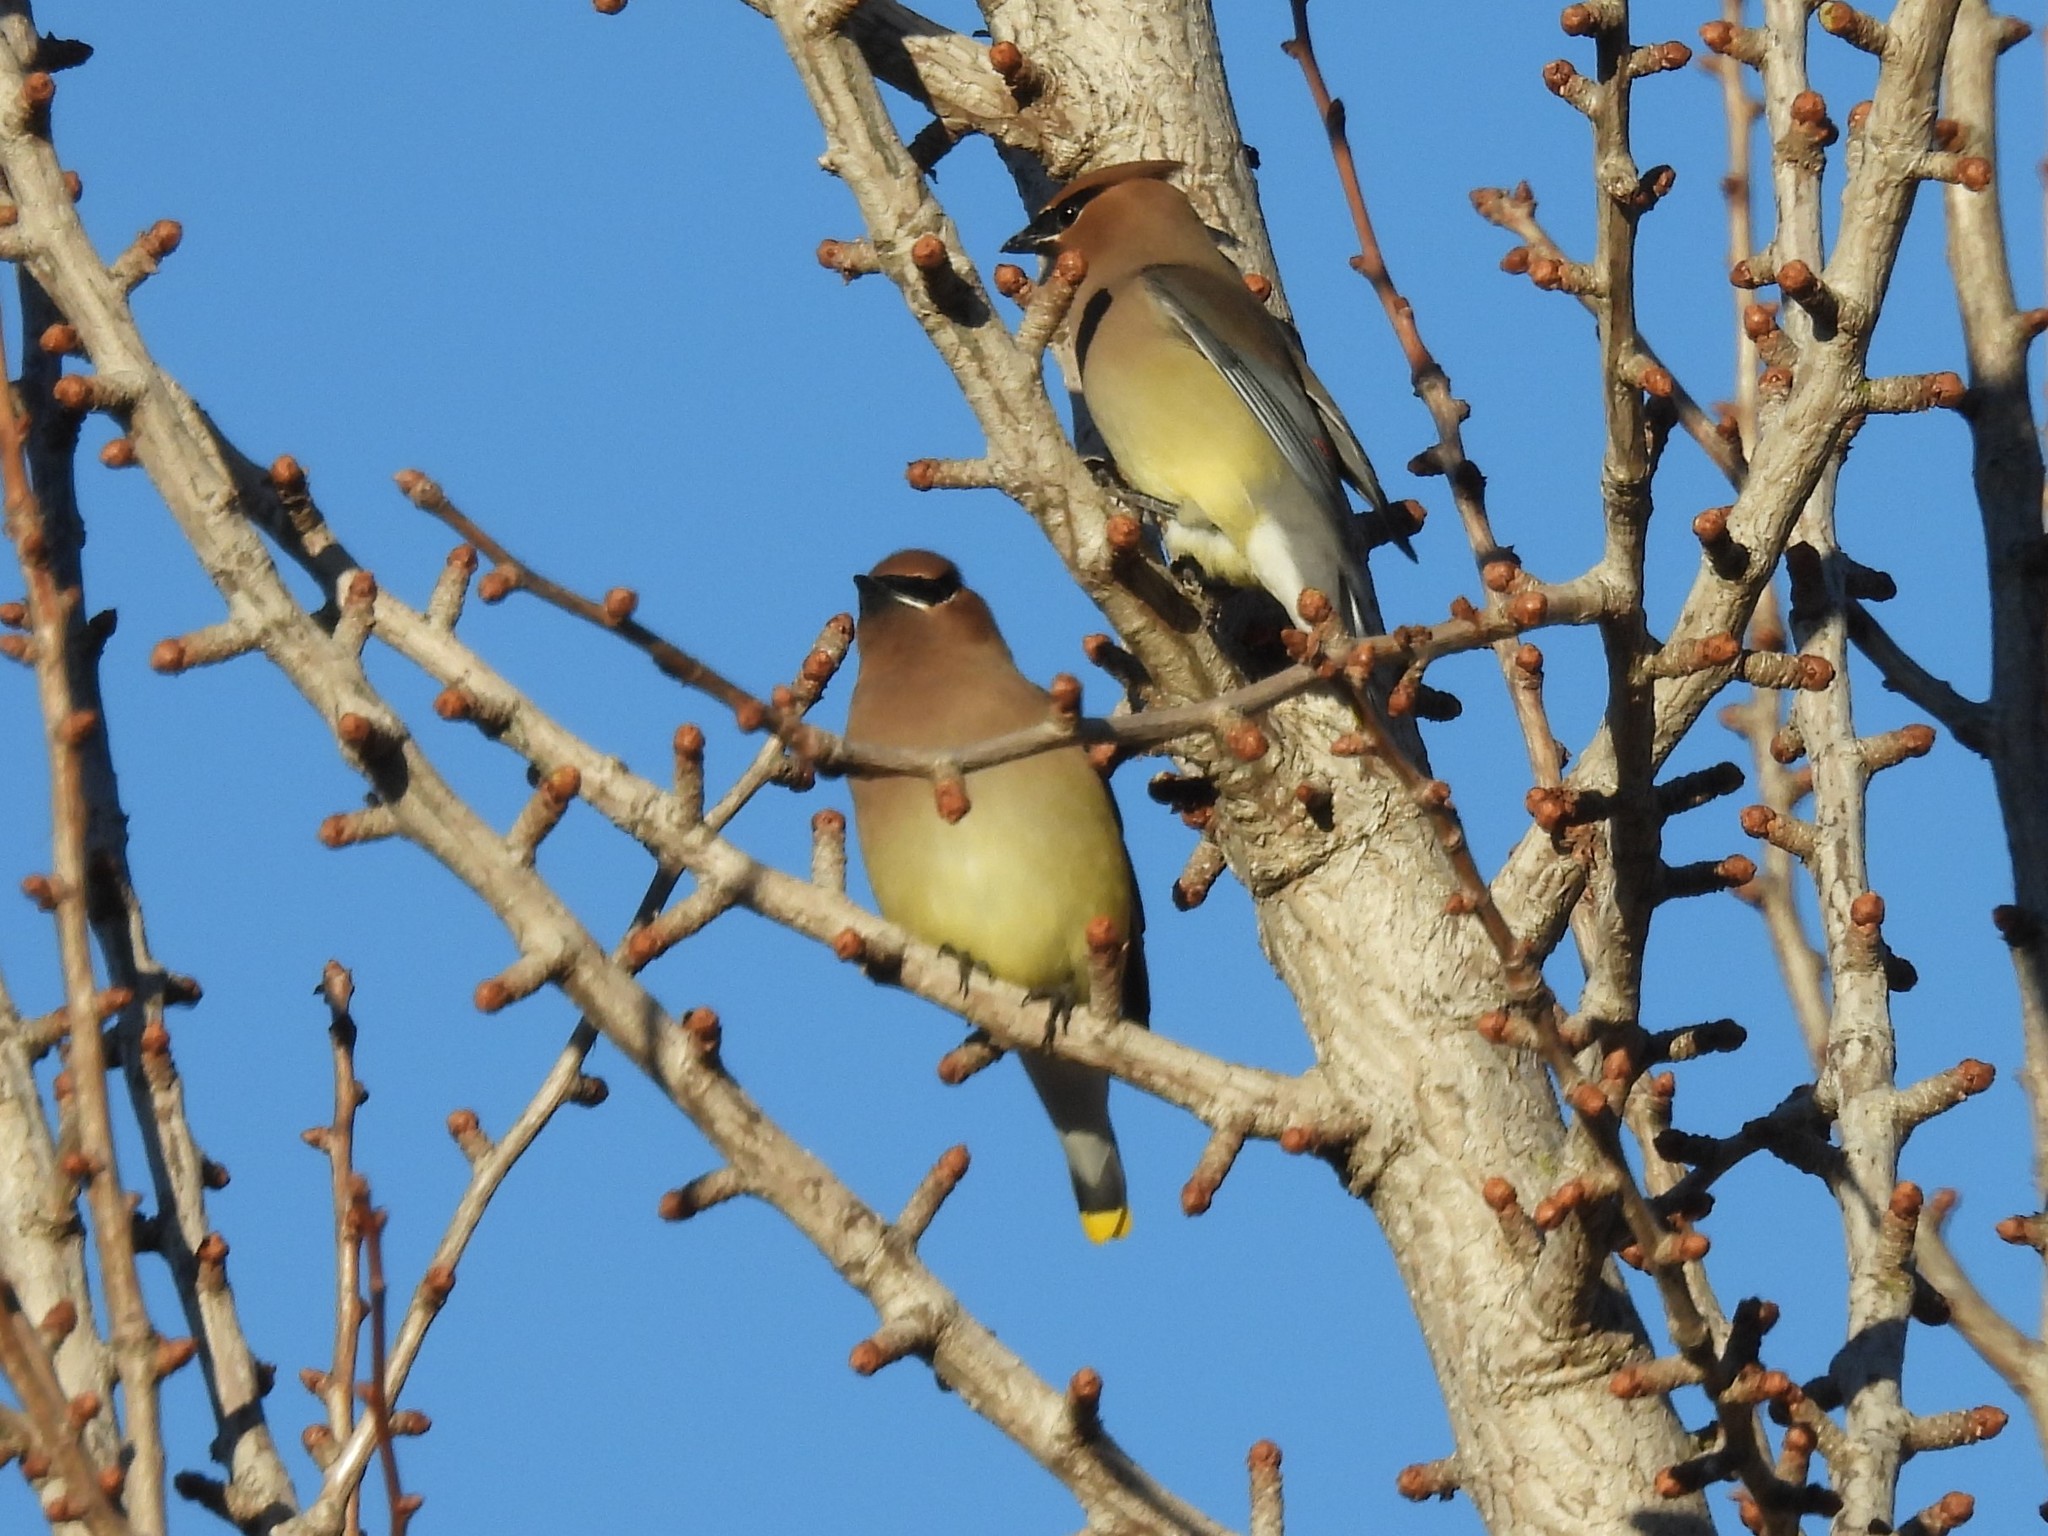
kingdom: Animalia
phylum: Chordata
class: Aves
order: Passeriformes
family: Bombycillidae
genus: Bombycilla
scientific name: Bombycilla cedrorum
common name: Cedar waxwing
